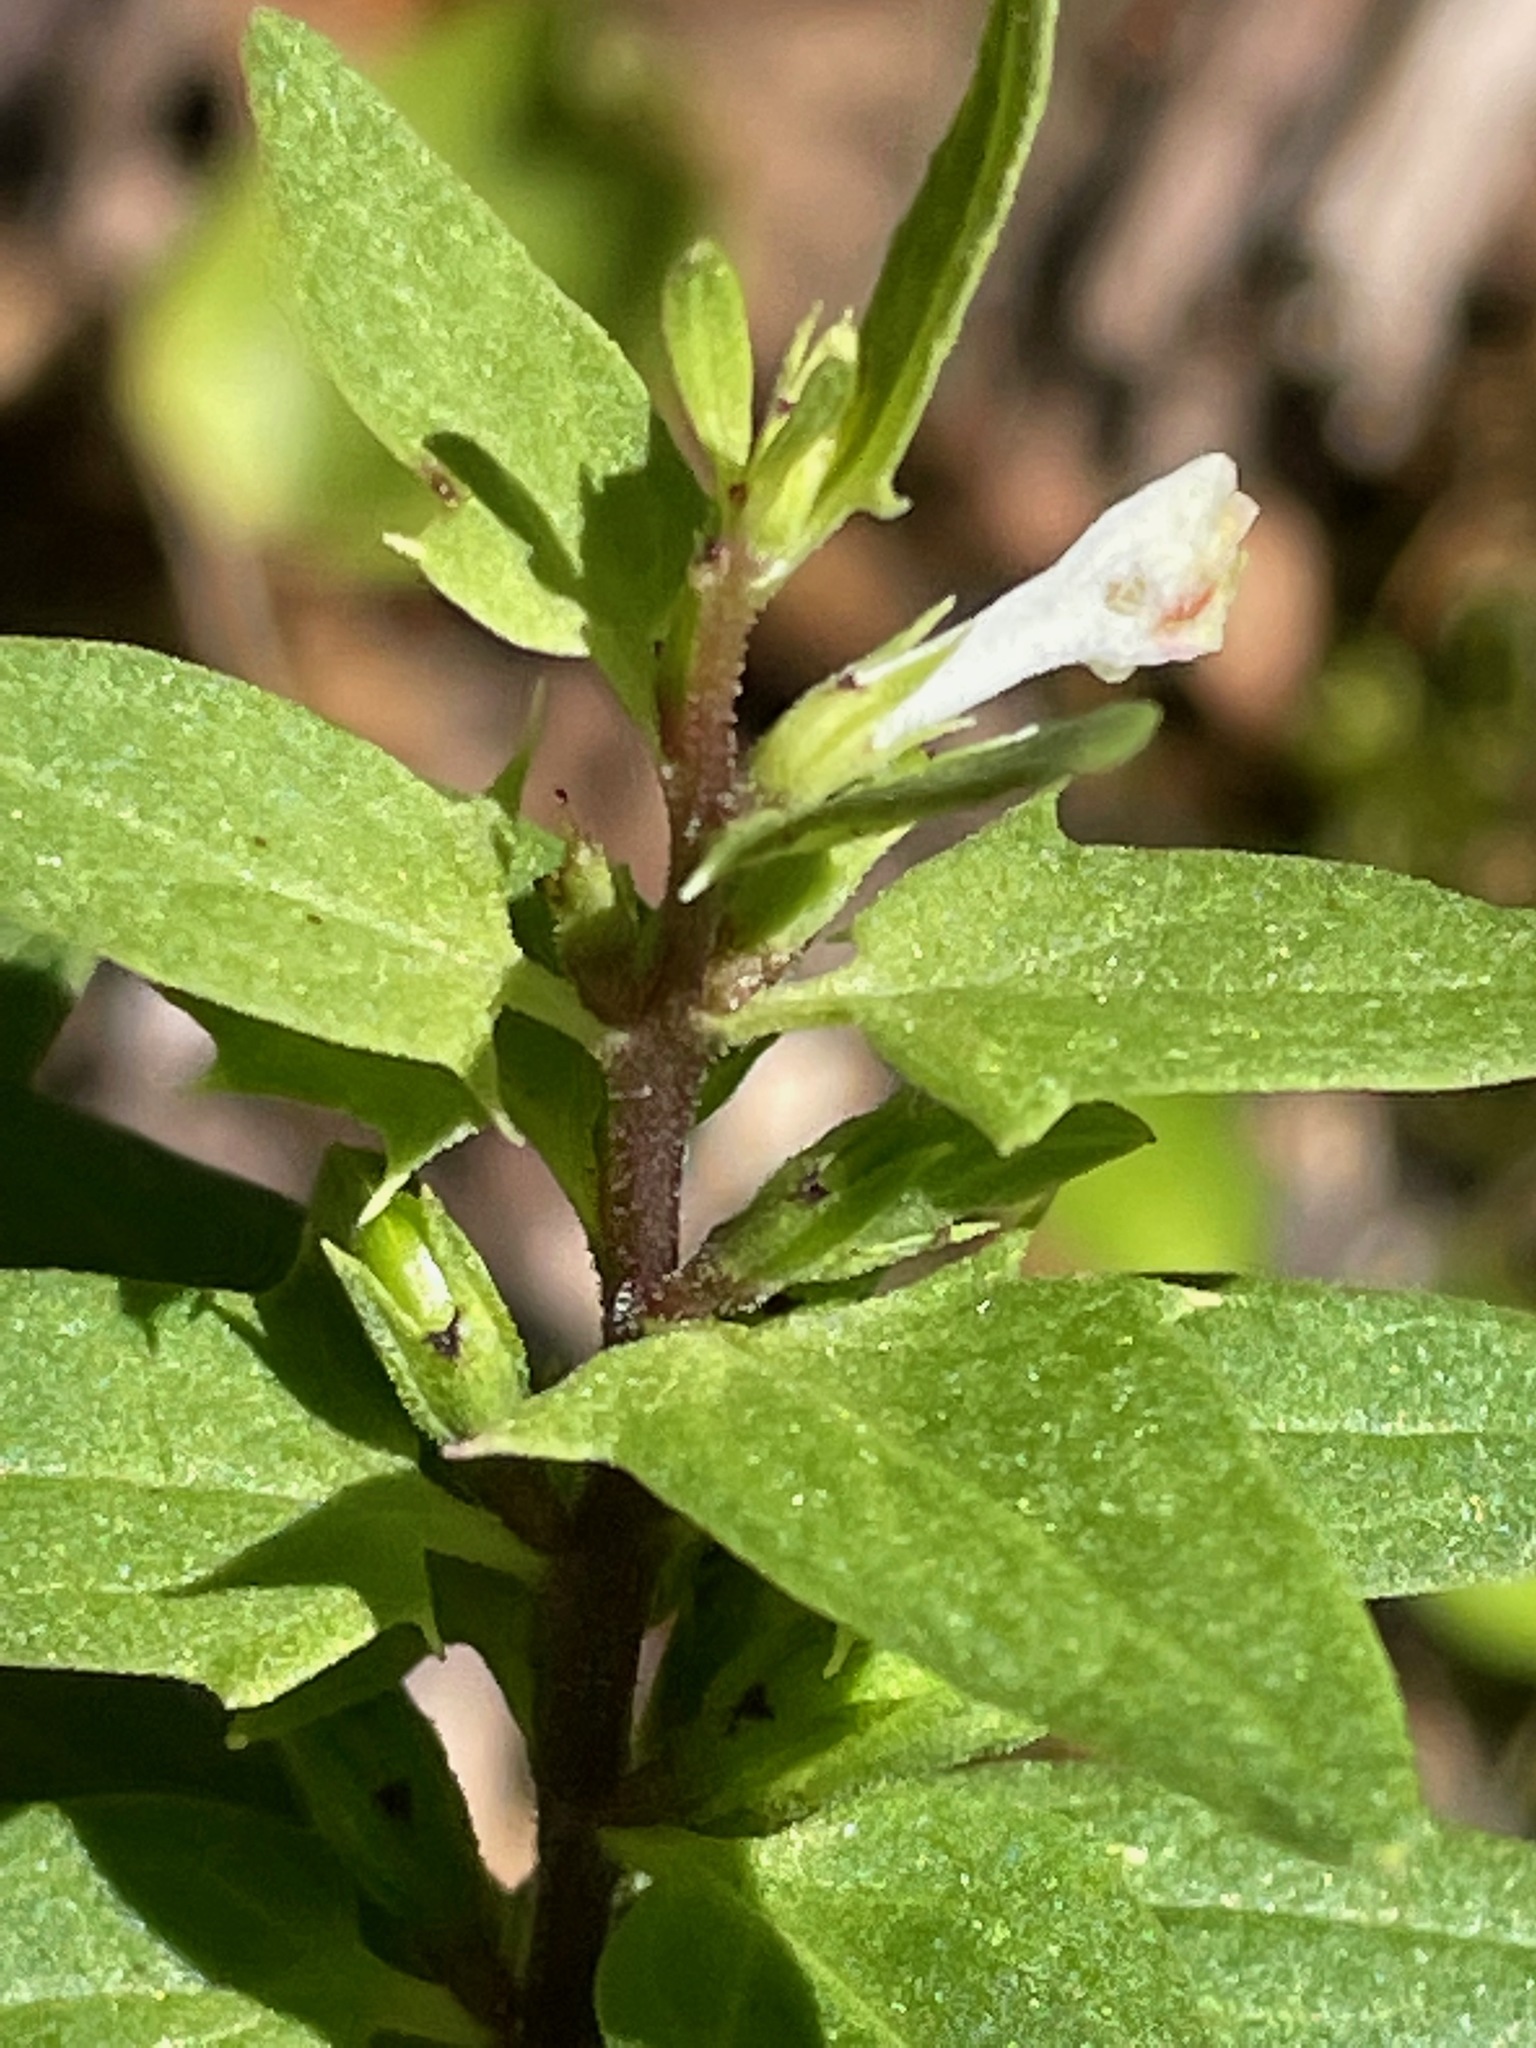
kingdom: Plantae
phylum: Tracheophyta
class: Magnoliopsida
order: Lamiales
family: Orobanchaceae
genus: Melampyrum
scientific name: Melampyrum lineare
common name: American cow-wheat
